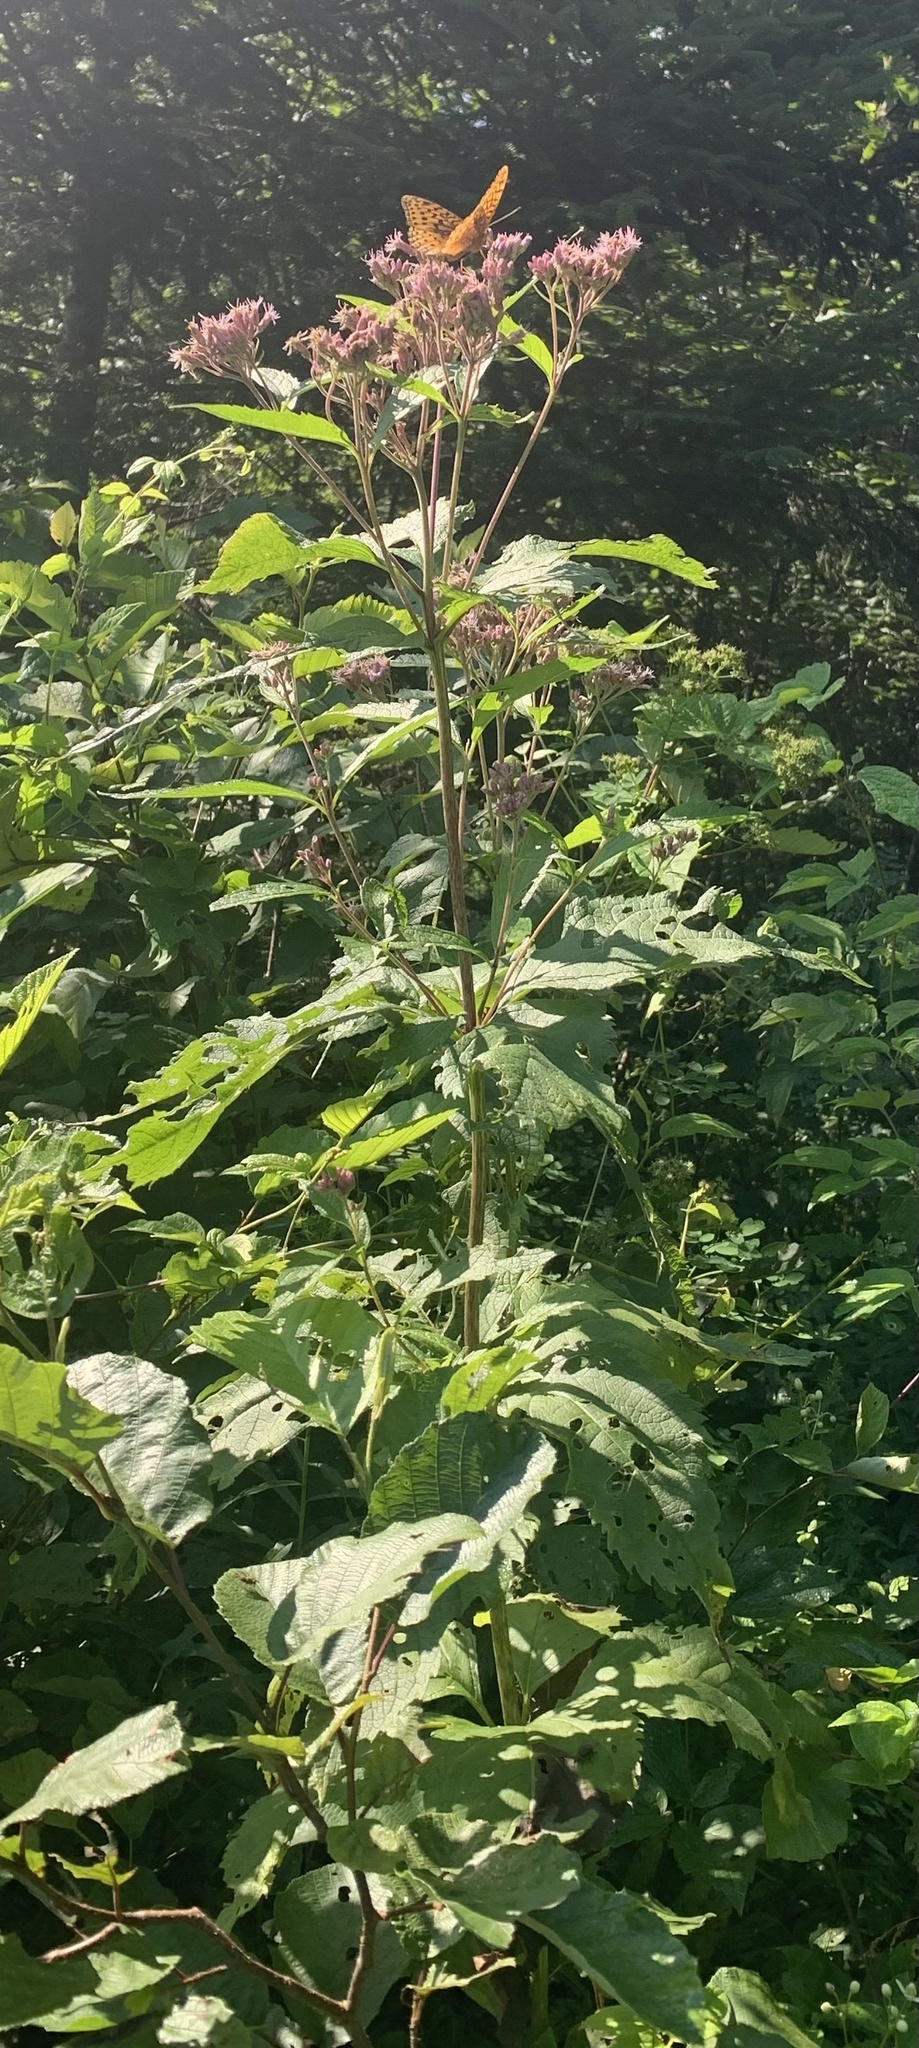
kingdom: Plantae
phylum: Tracheophyta
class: Magnoliopsida
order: Asterales
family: Asteraceae
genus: Eutrochium
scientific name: Eutrochium maculatum
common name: Spotted joe pye weed
